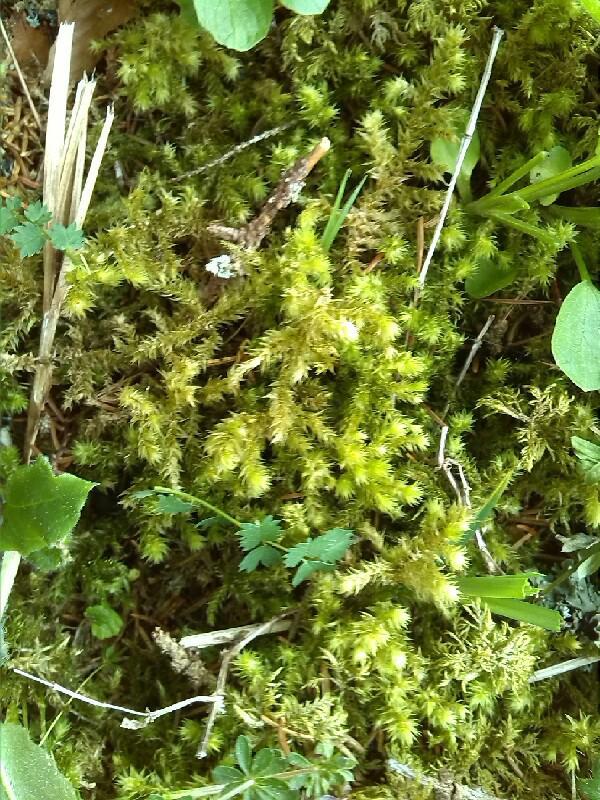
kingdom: Plantae
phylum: Bryophyta
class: Bryopsida
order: Hypnales
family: Hylocomiaceae
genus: Hylocomiadelphus
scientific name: Hylocomiadelphus triquetrus
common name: Rough goose neck moss
